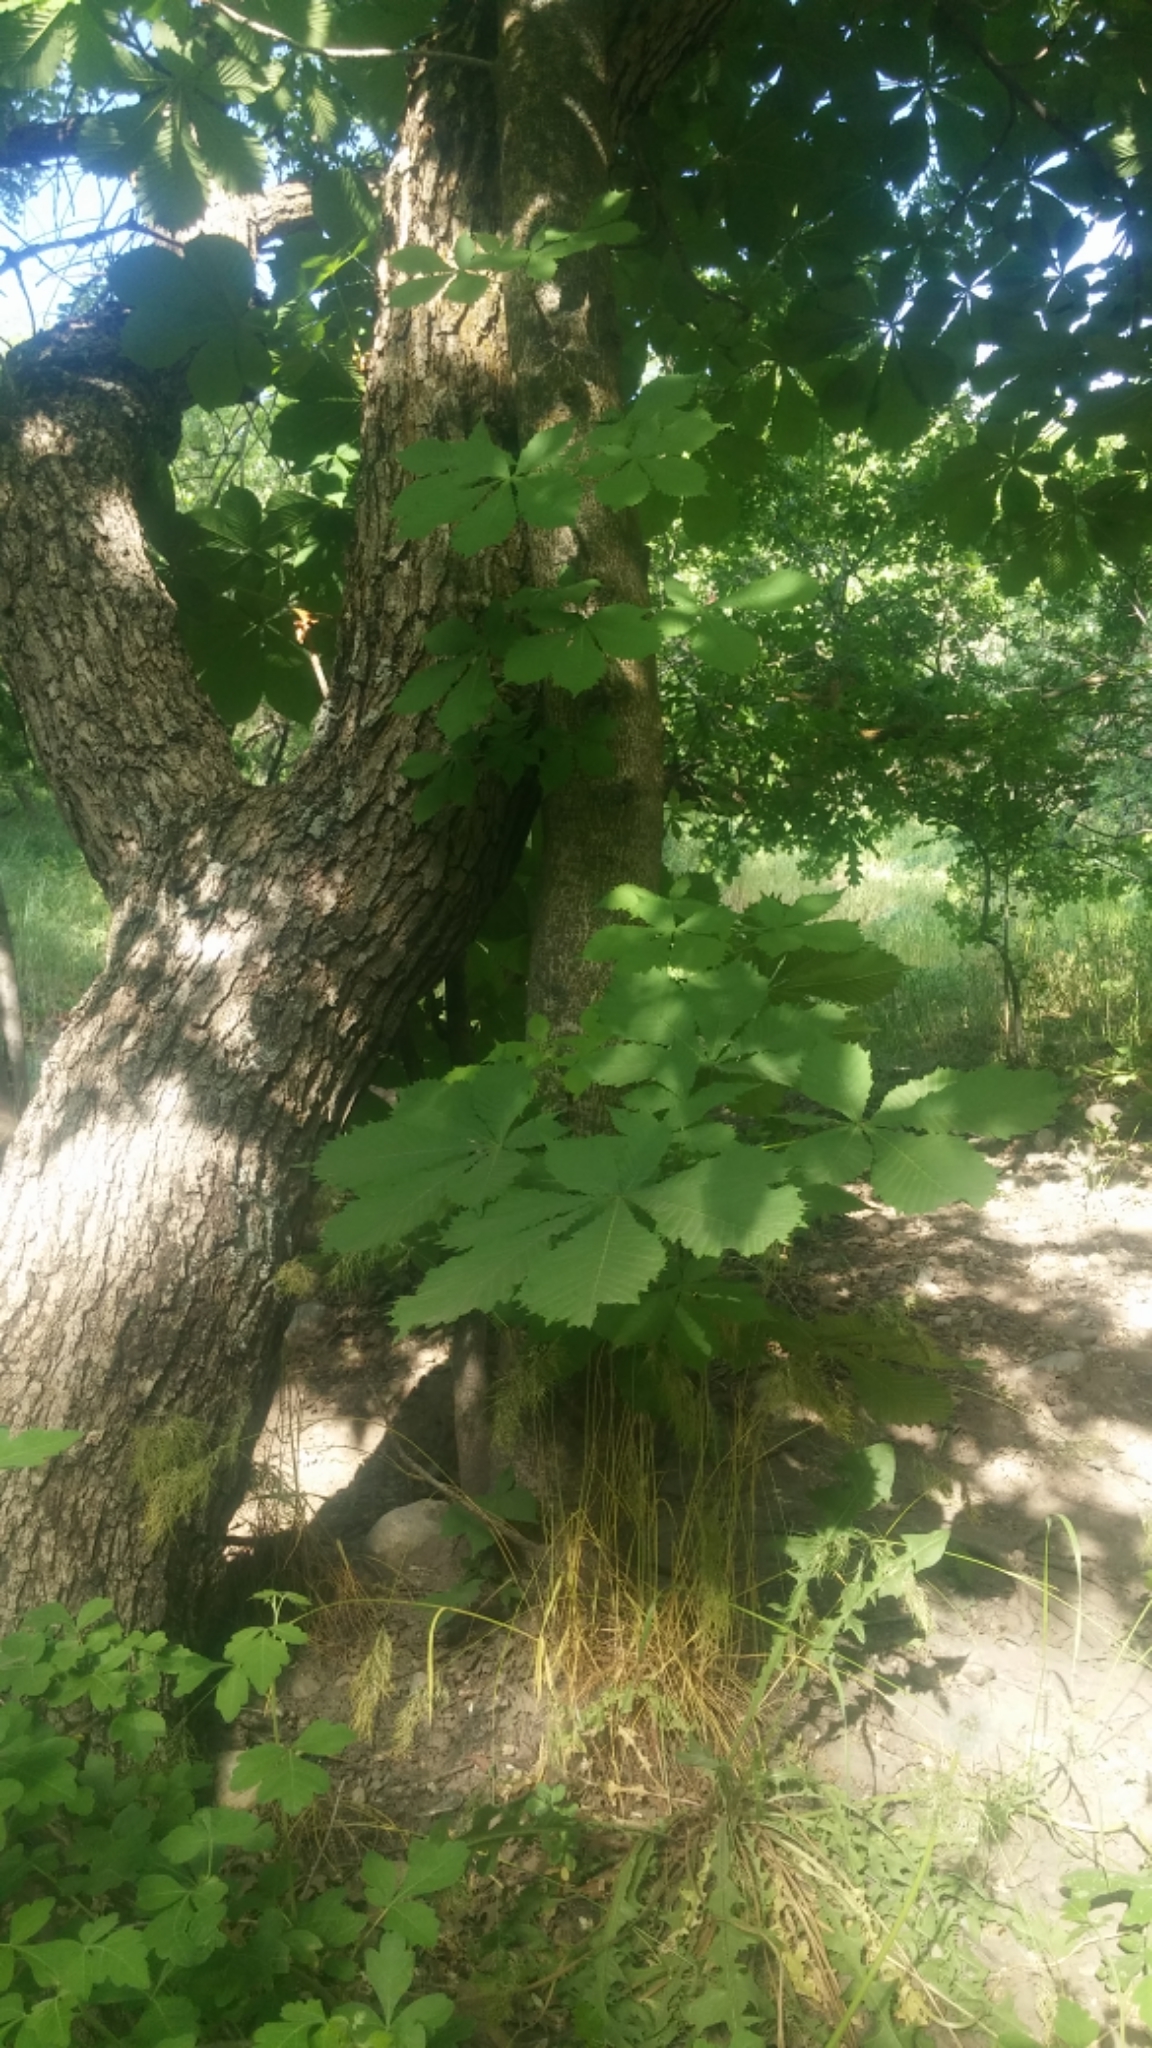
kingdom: Plantae
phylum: Tracheophyta
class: Magnoliopsida
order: Sapindales
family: Sapindaceae
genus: Aesculus
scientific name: Aesculus hippocastanum
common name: Horse-chestnut
